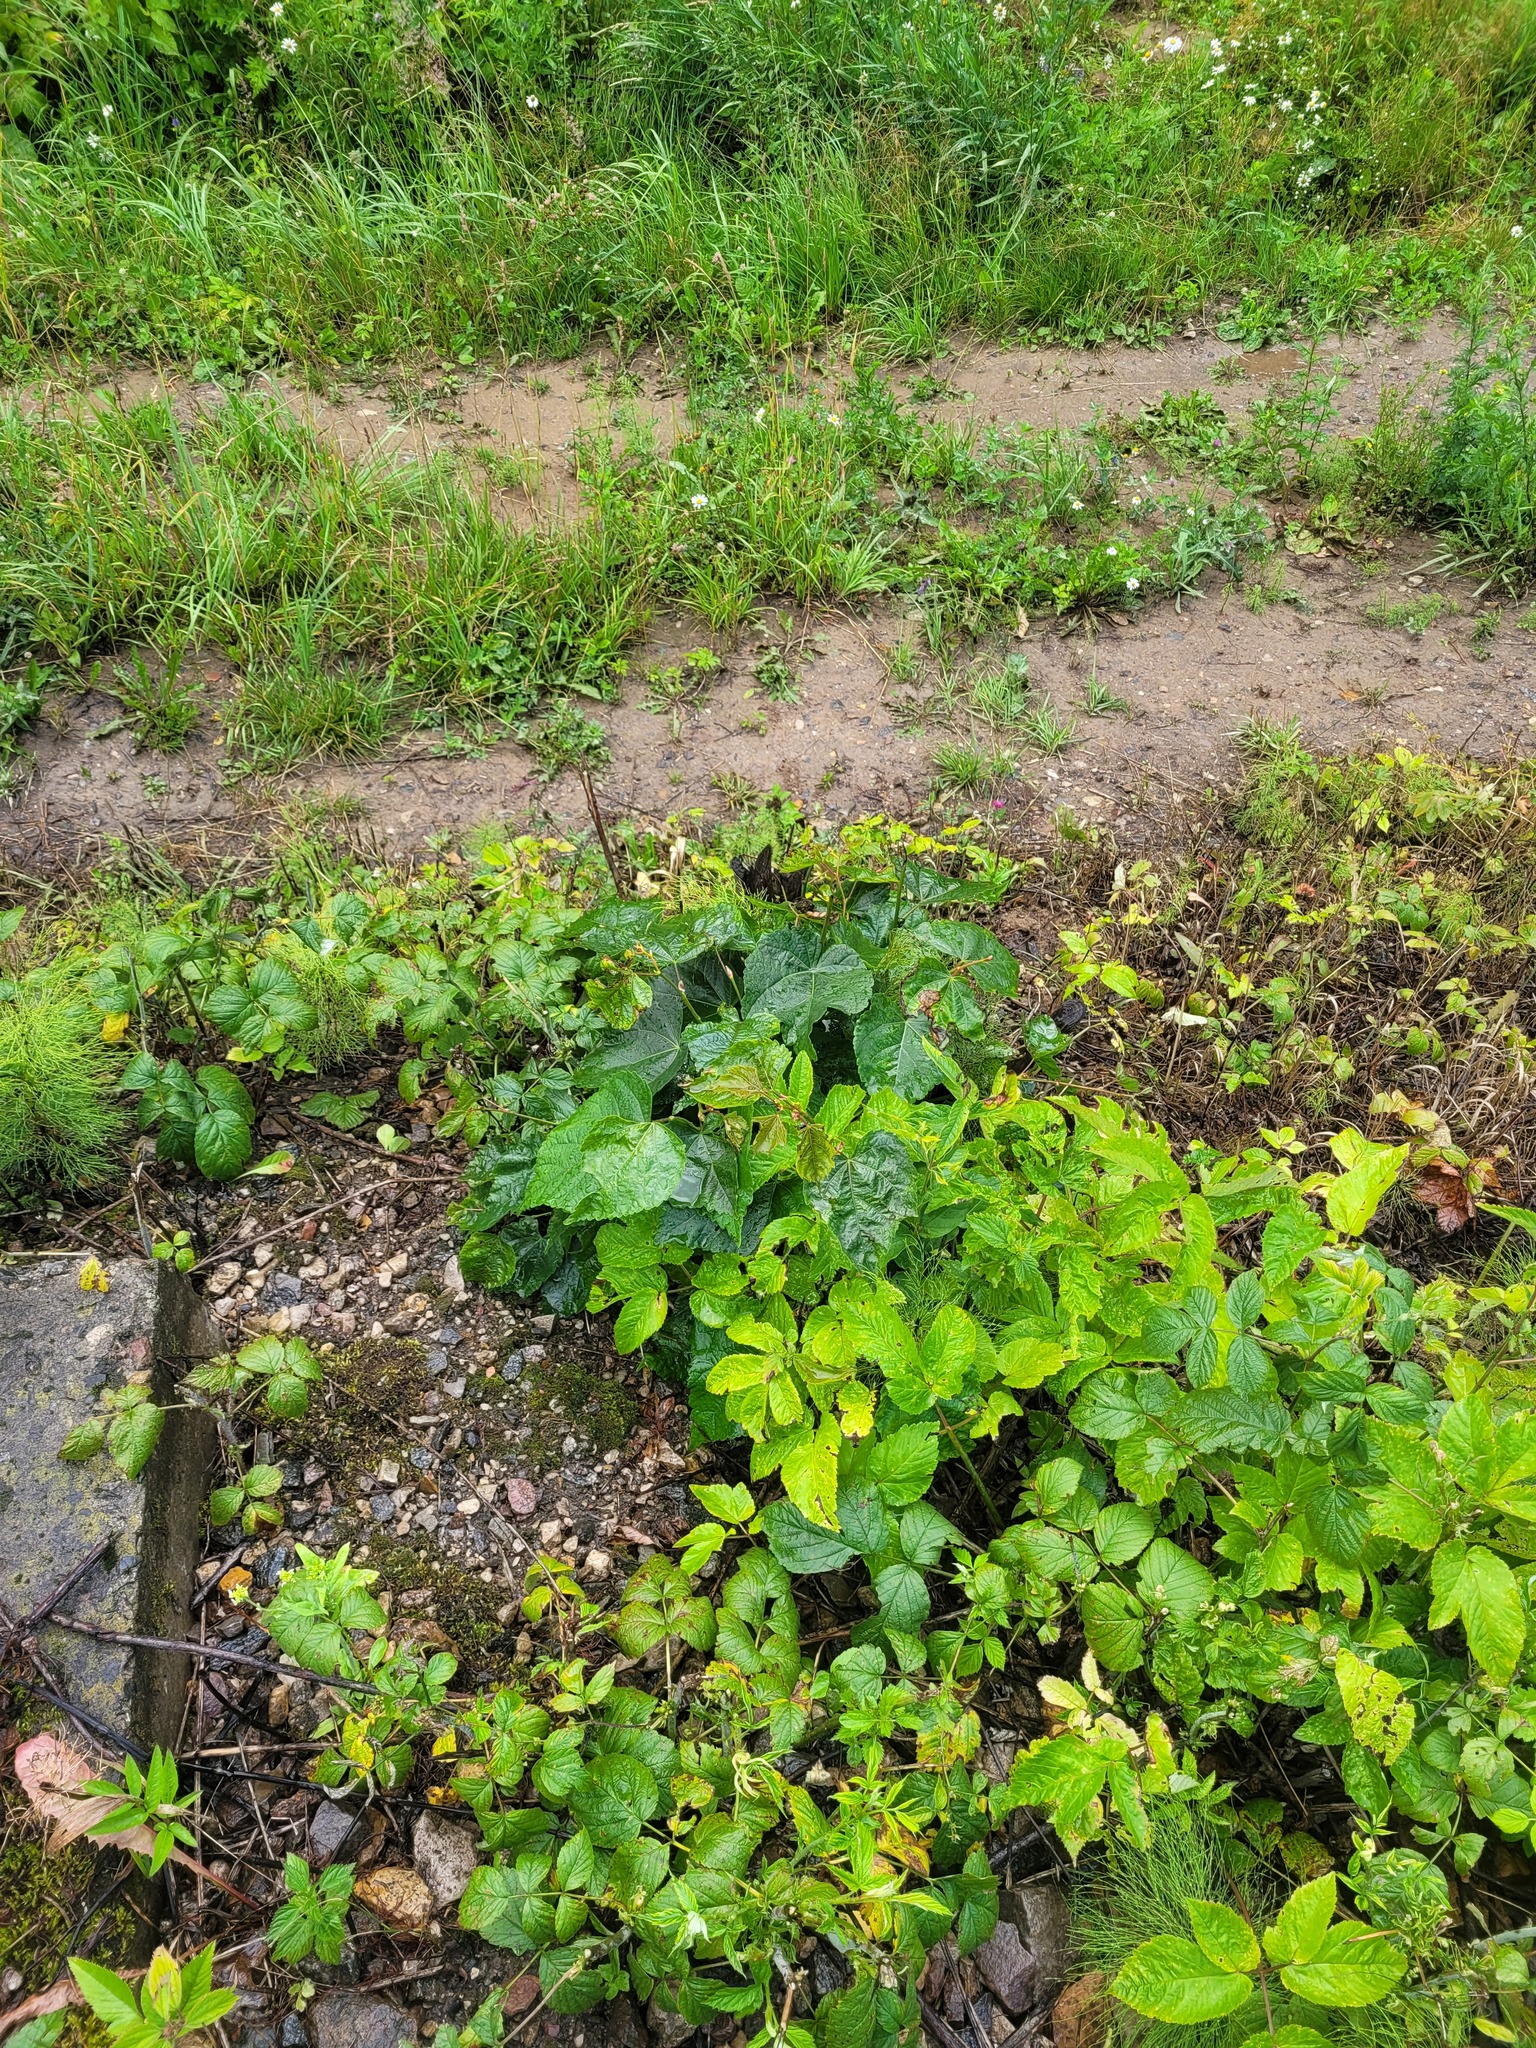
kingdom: Plantae
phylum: Tracheophyta
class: Magnoliopsida
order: Malvales
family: Malvaceae
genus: Tilia
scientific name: Tilia cordata
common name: Small-leaved lime
